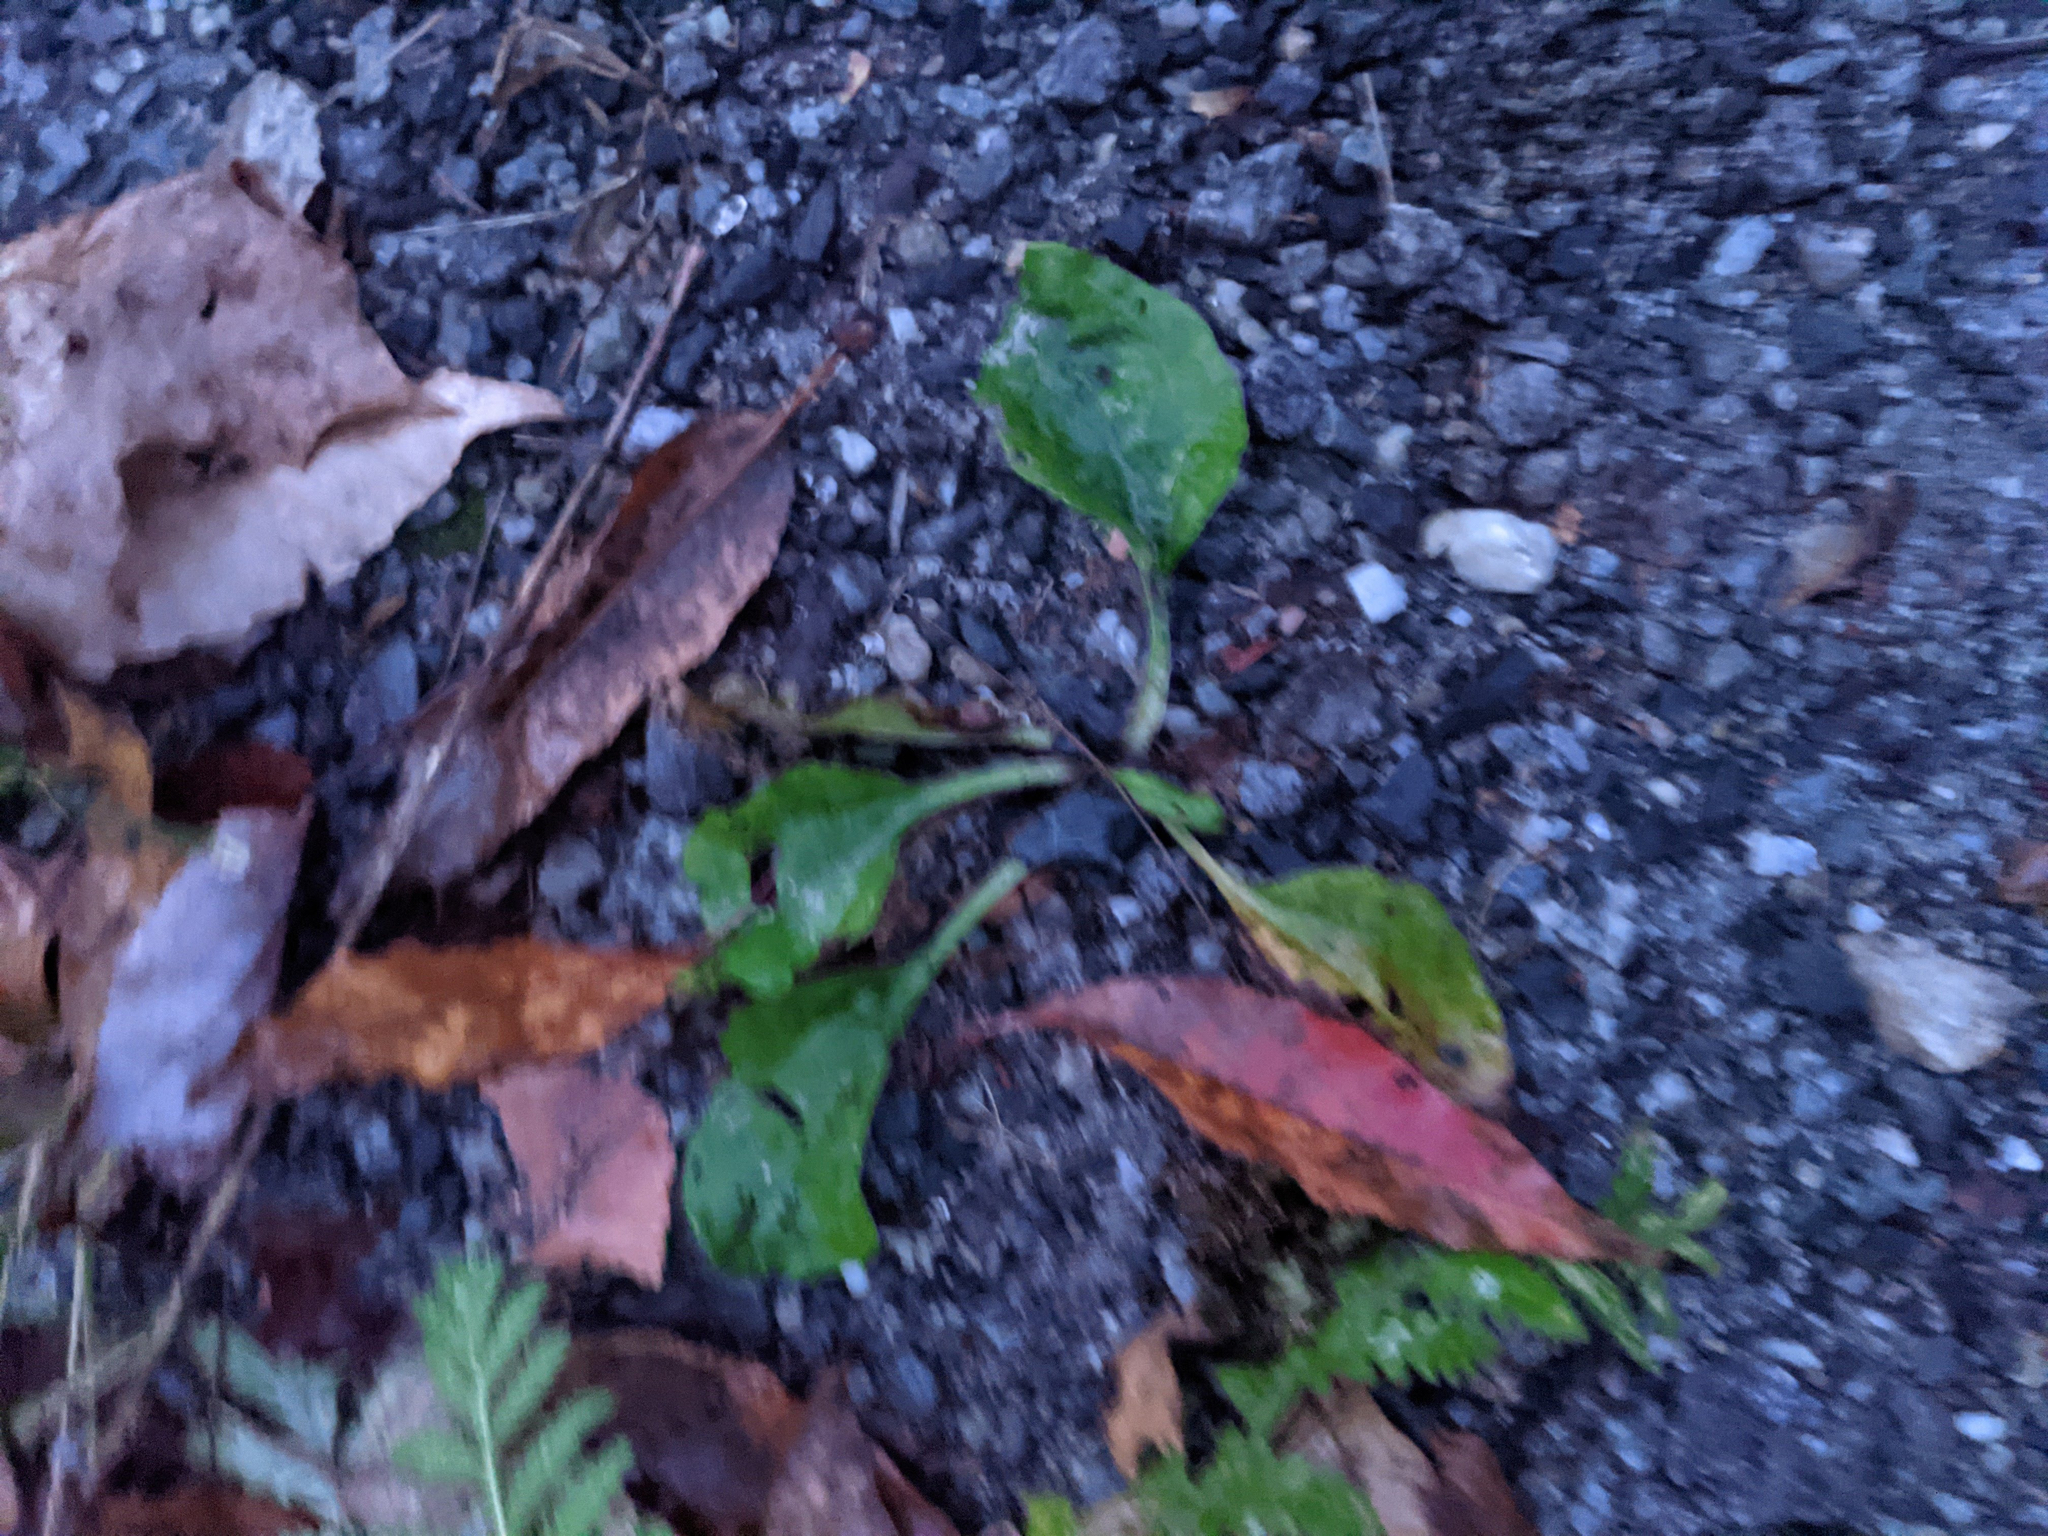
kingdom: Plantae
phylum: Tracheophyta
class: Magnoliopsida
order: Lamiales
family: Plantaginaceae
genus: Plantago
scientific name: Plantago major
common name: Common plantain
